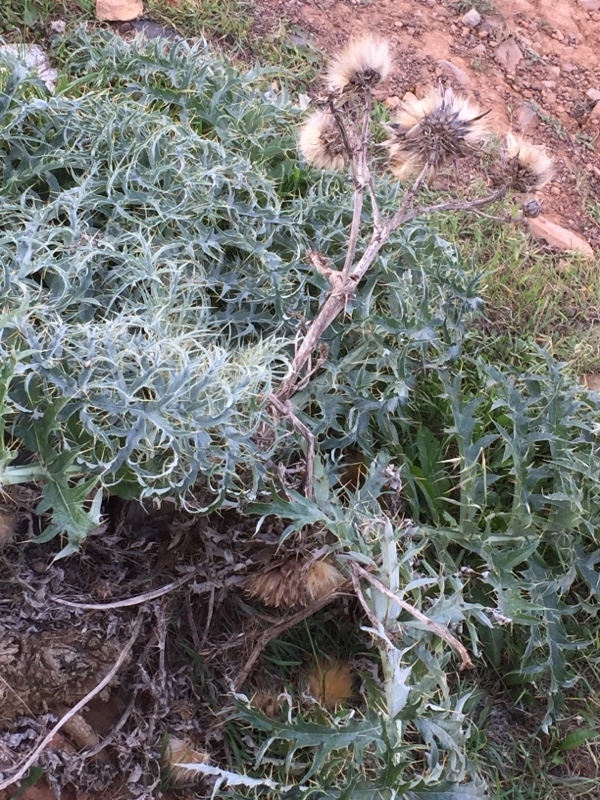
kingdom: Plantae
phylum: Tracheophyta
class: Magnoliopsida
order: Asterales
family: Asteraceae
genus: Cynara
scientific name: Cynara cardunculus
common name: Globe artichoke
